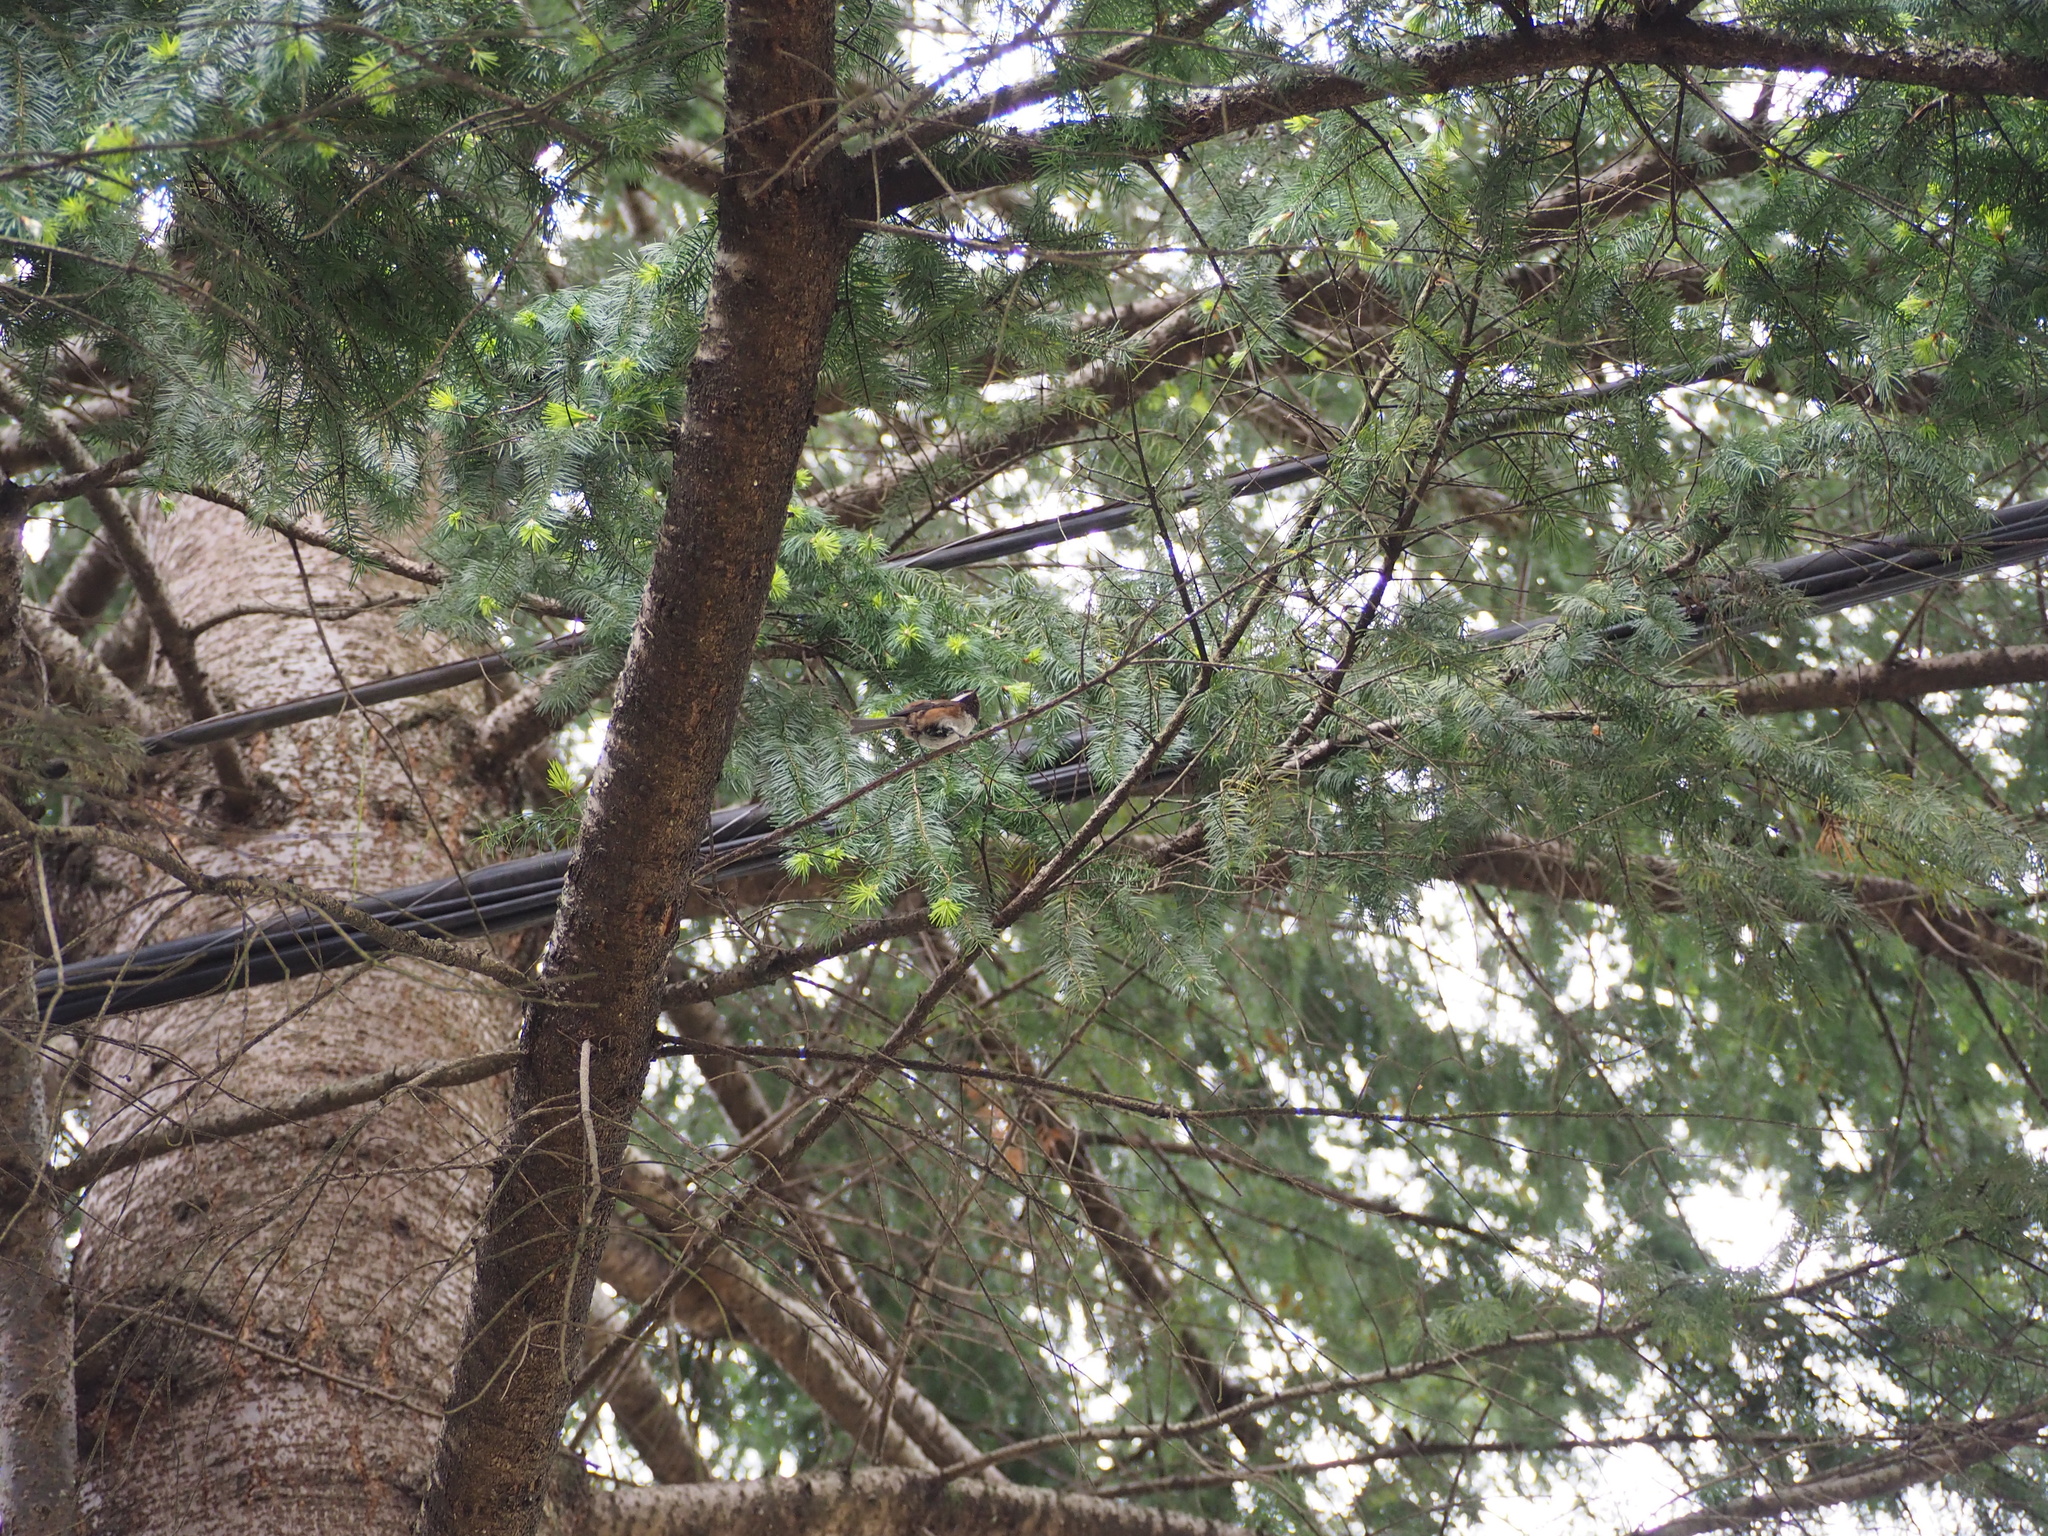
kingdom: Animalia
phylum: Chordata
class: Aves
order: Passeriformes
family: Paridae
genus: Poecile
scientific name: Poecile rufescens
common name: Chestnut-backed chickadee
